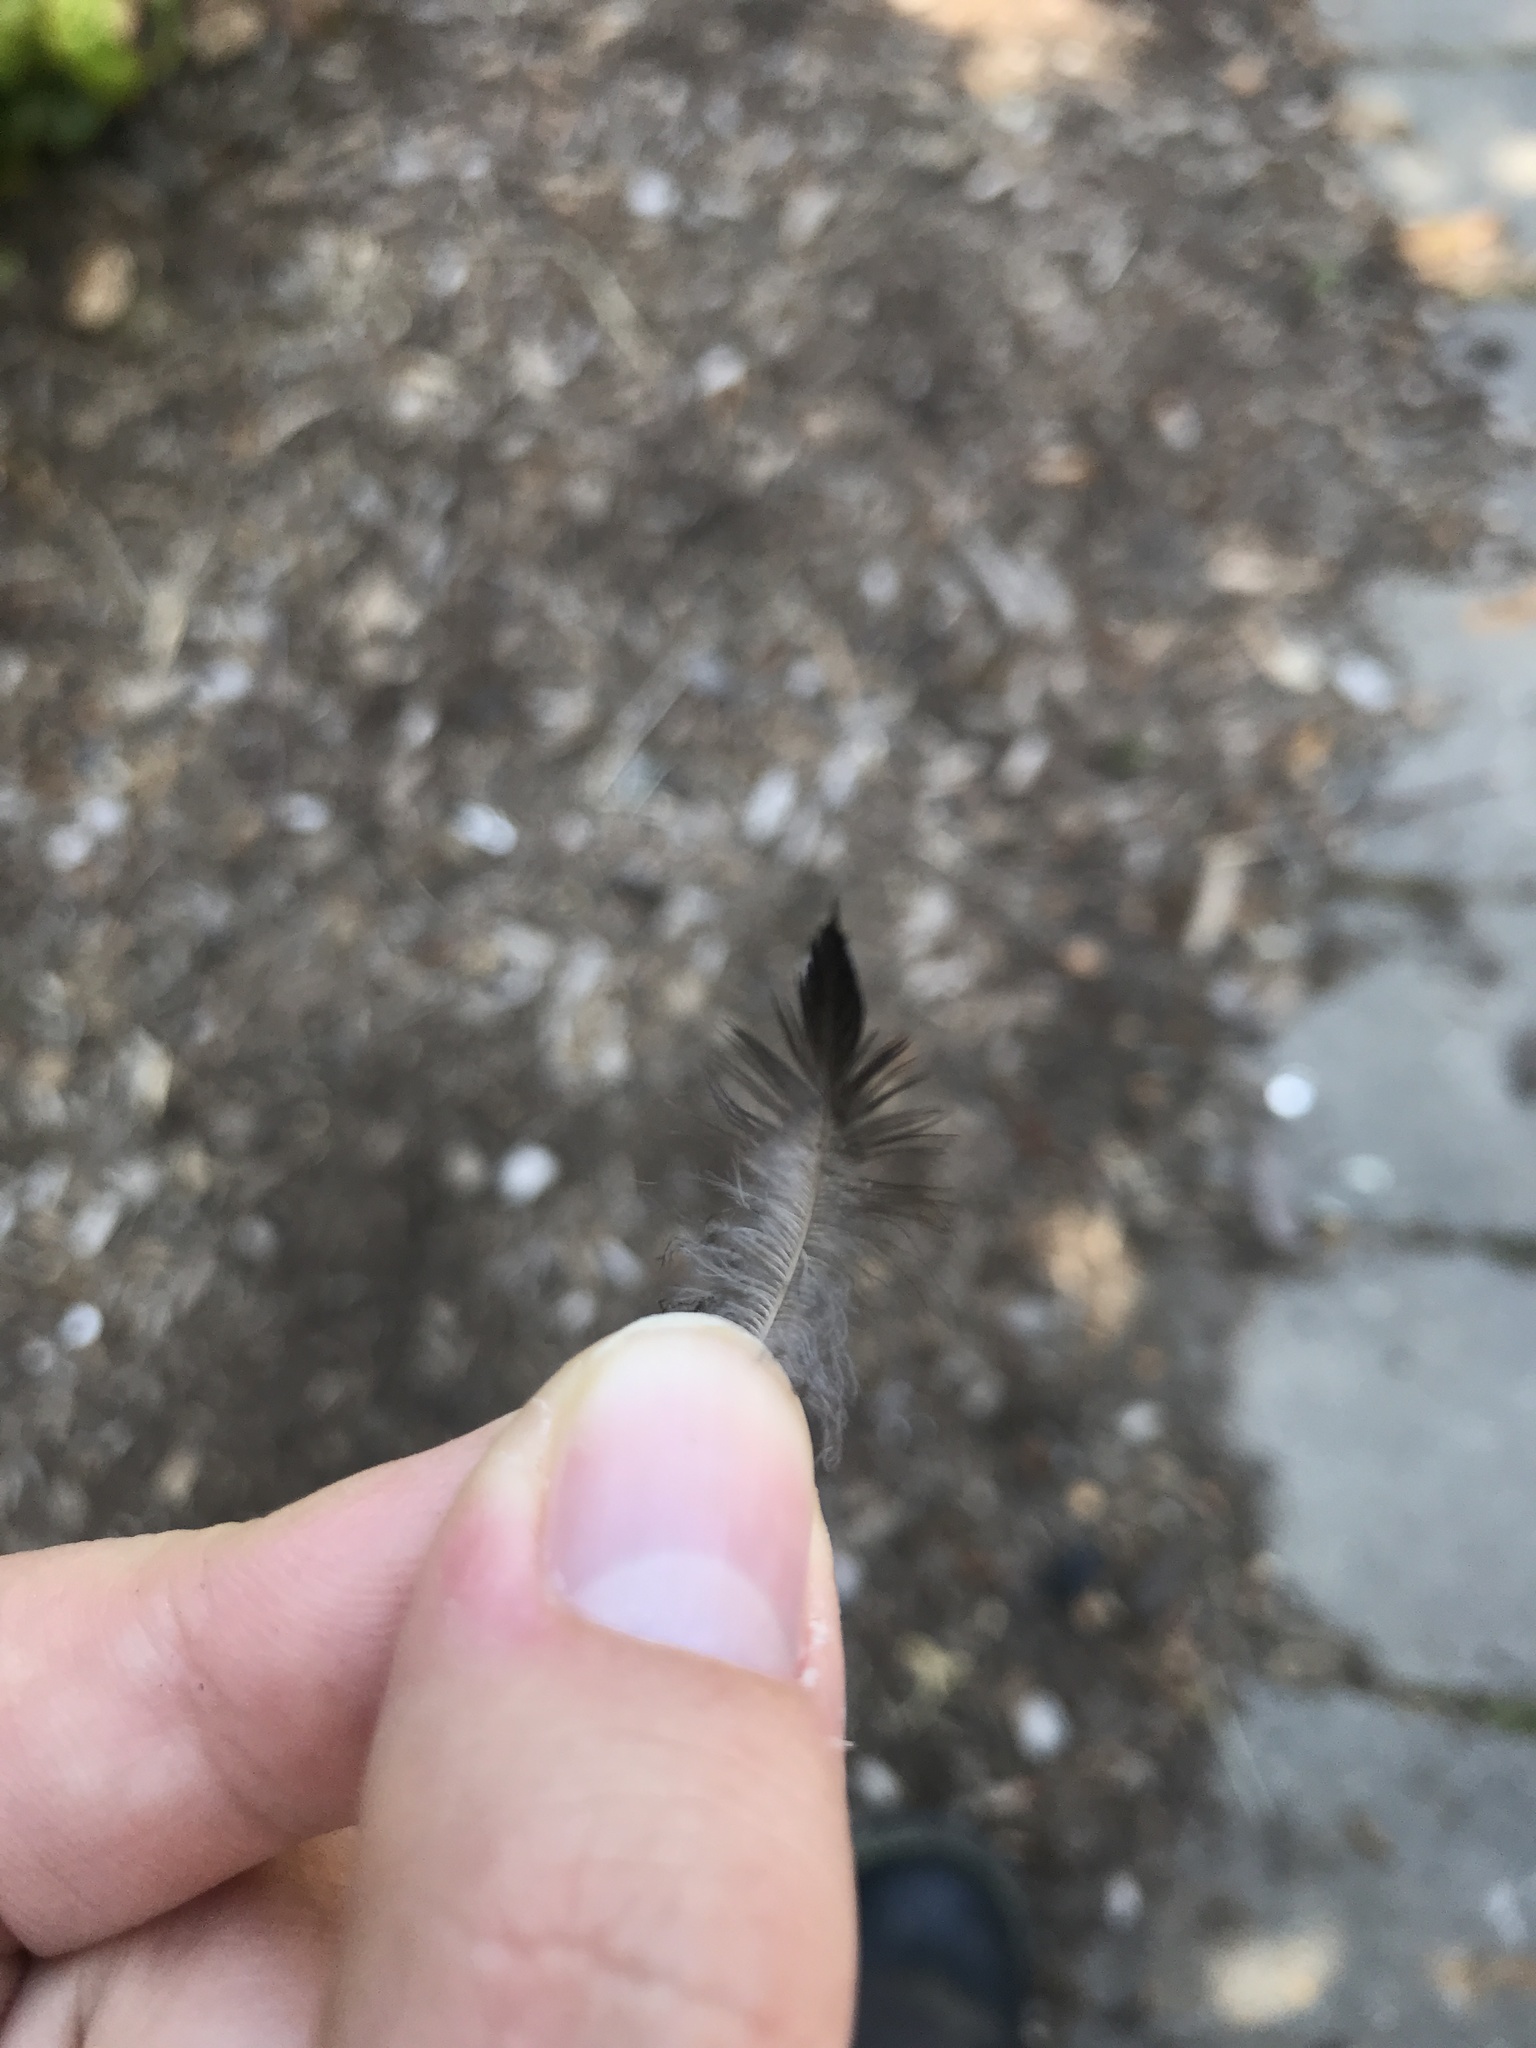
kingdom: Animalia
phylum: Chordata
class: Aves
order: Passeriformes
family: Sturnidae
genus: Sturnus
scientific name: Sturnus vulgaris
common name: Common starling
